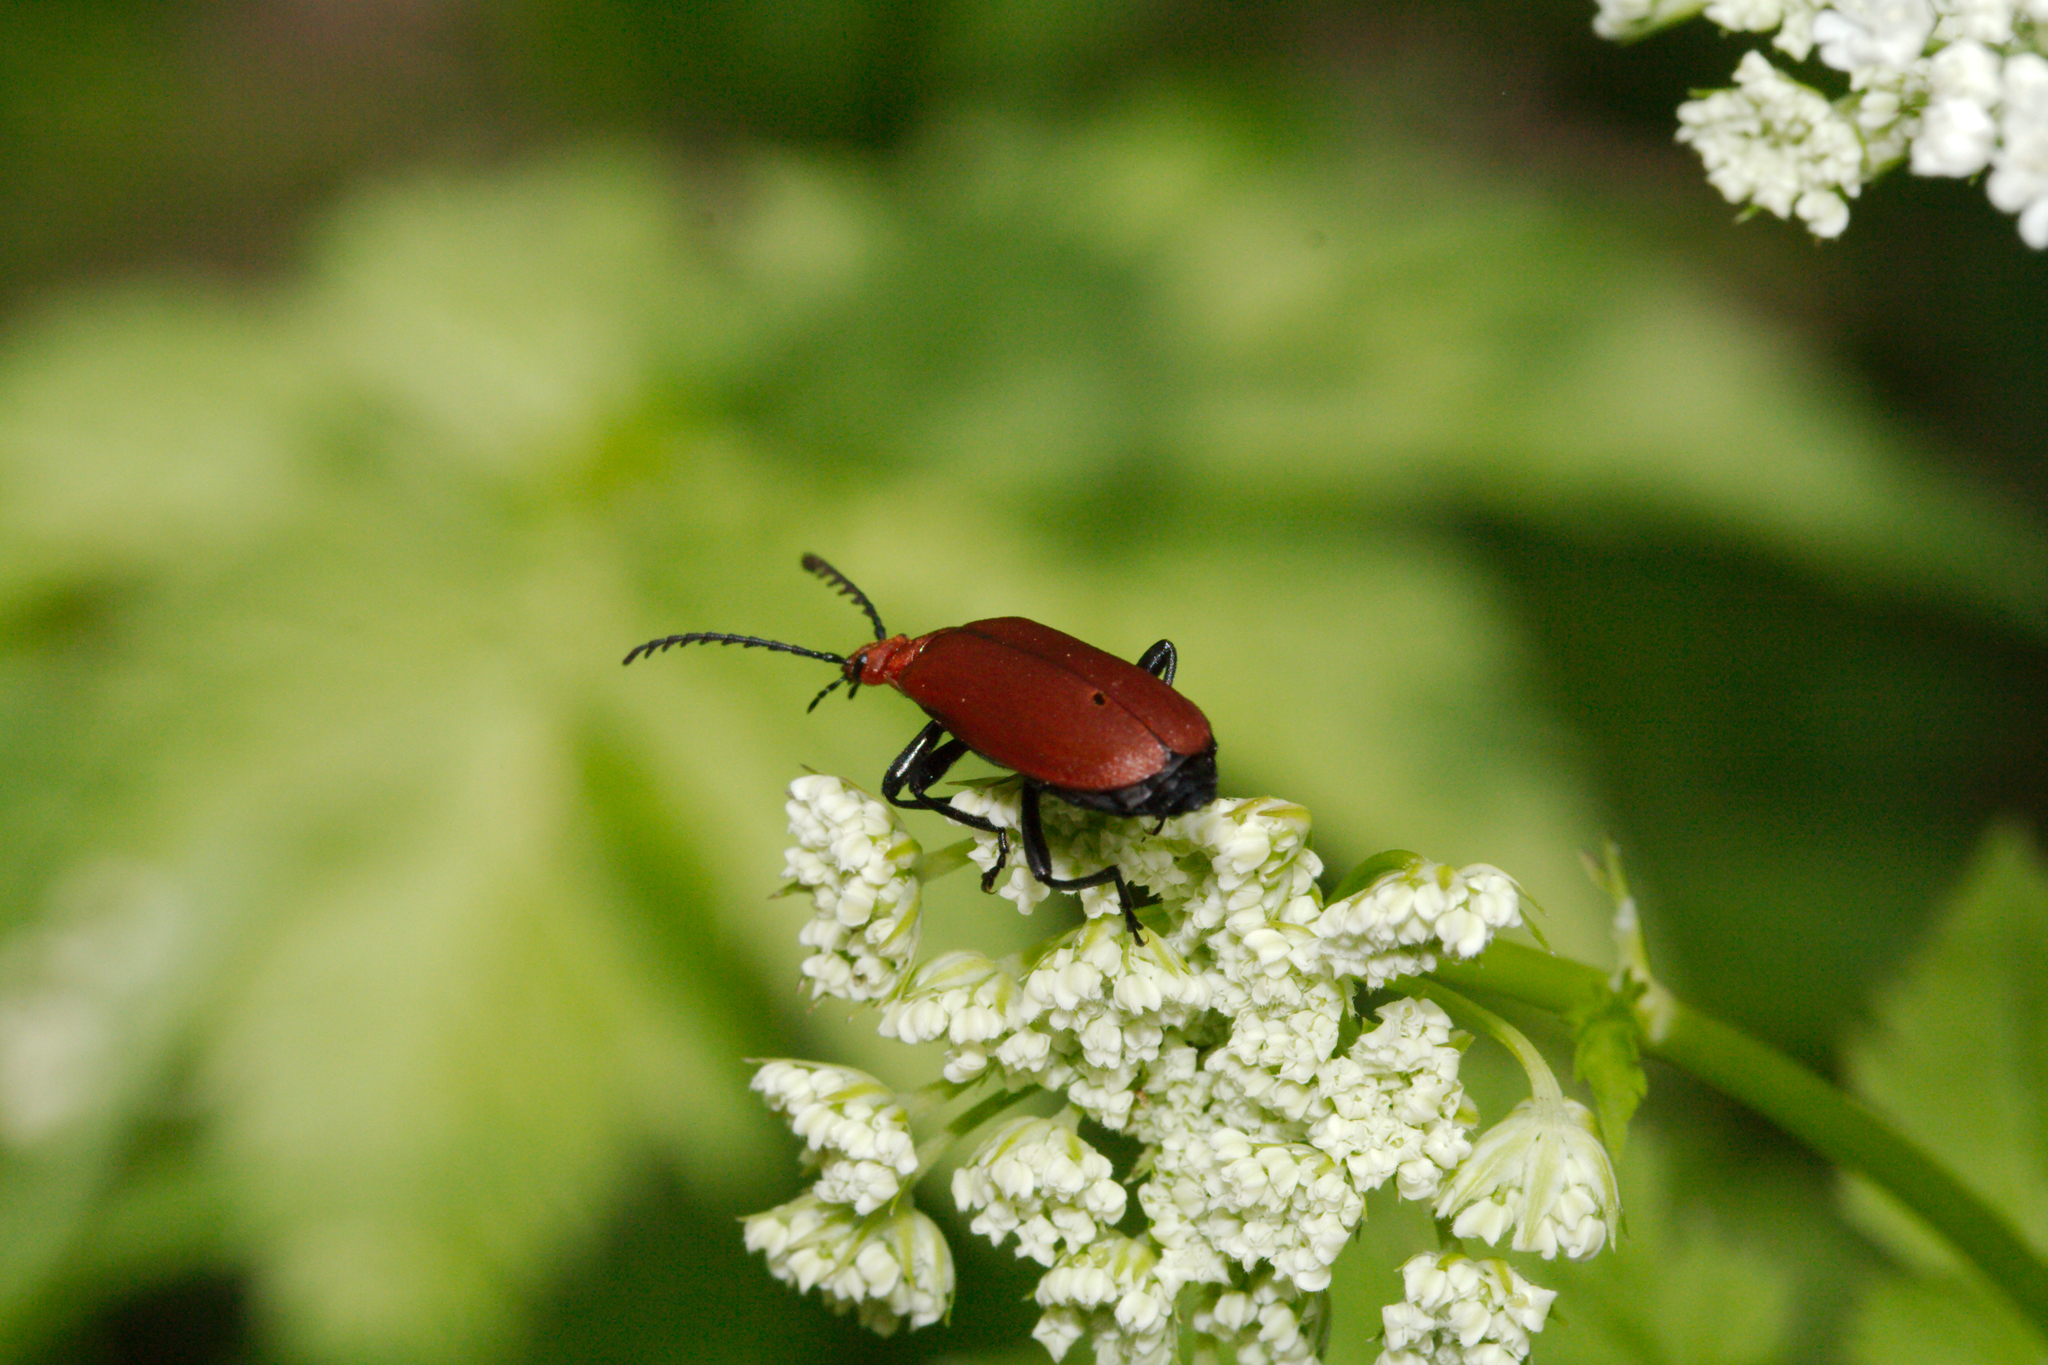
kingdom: Animalia
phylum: Arthropoda
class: Insecta
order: Coleoptera
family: Pyrochroidae
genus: Pyrochroa
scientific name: Pyrochroa serraticornis
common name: Red-headed cardinal beetle
